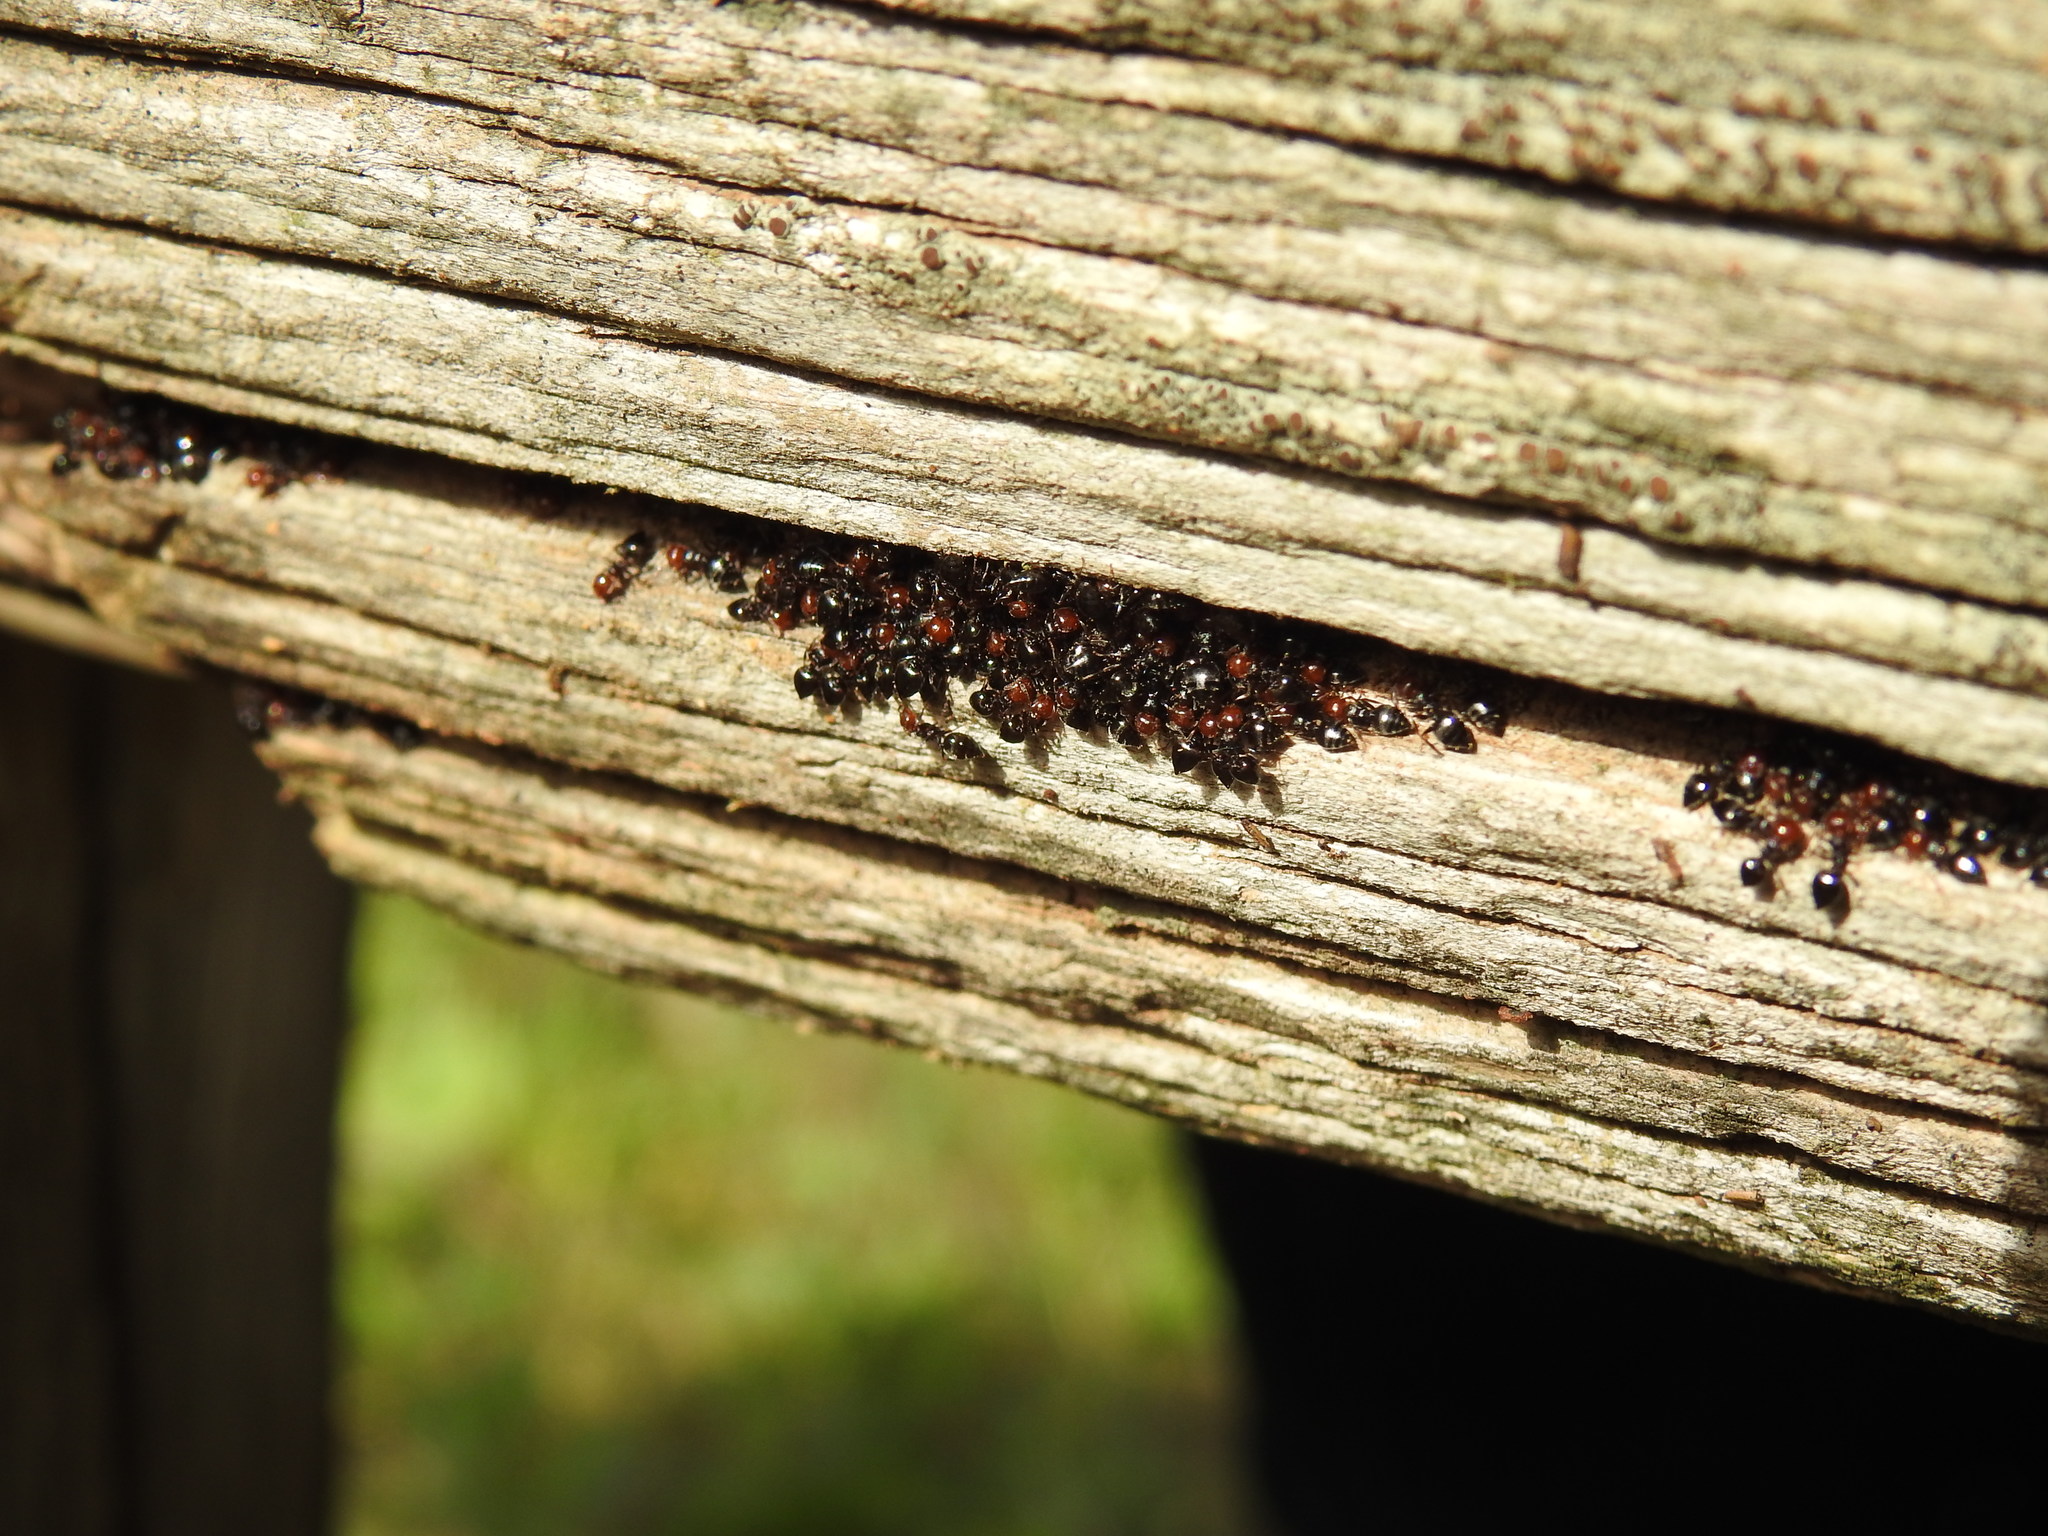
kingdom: Animalia
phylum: Arthropoda
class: Insecta
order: Hymenoptera
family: Formicidae
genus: Crematogaster
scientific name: Crematogaster scutellaris
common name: Fourmi du liège
